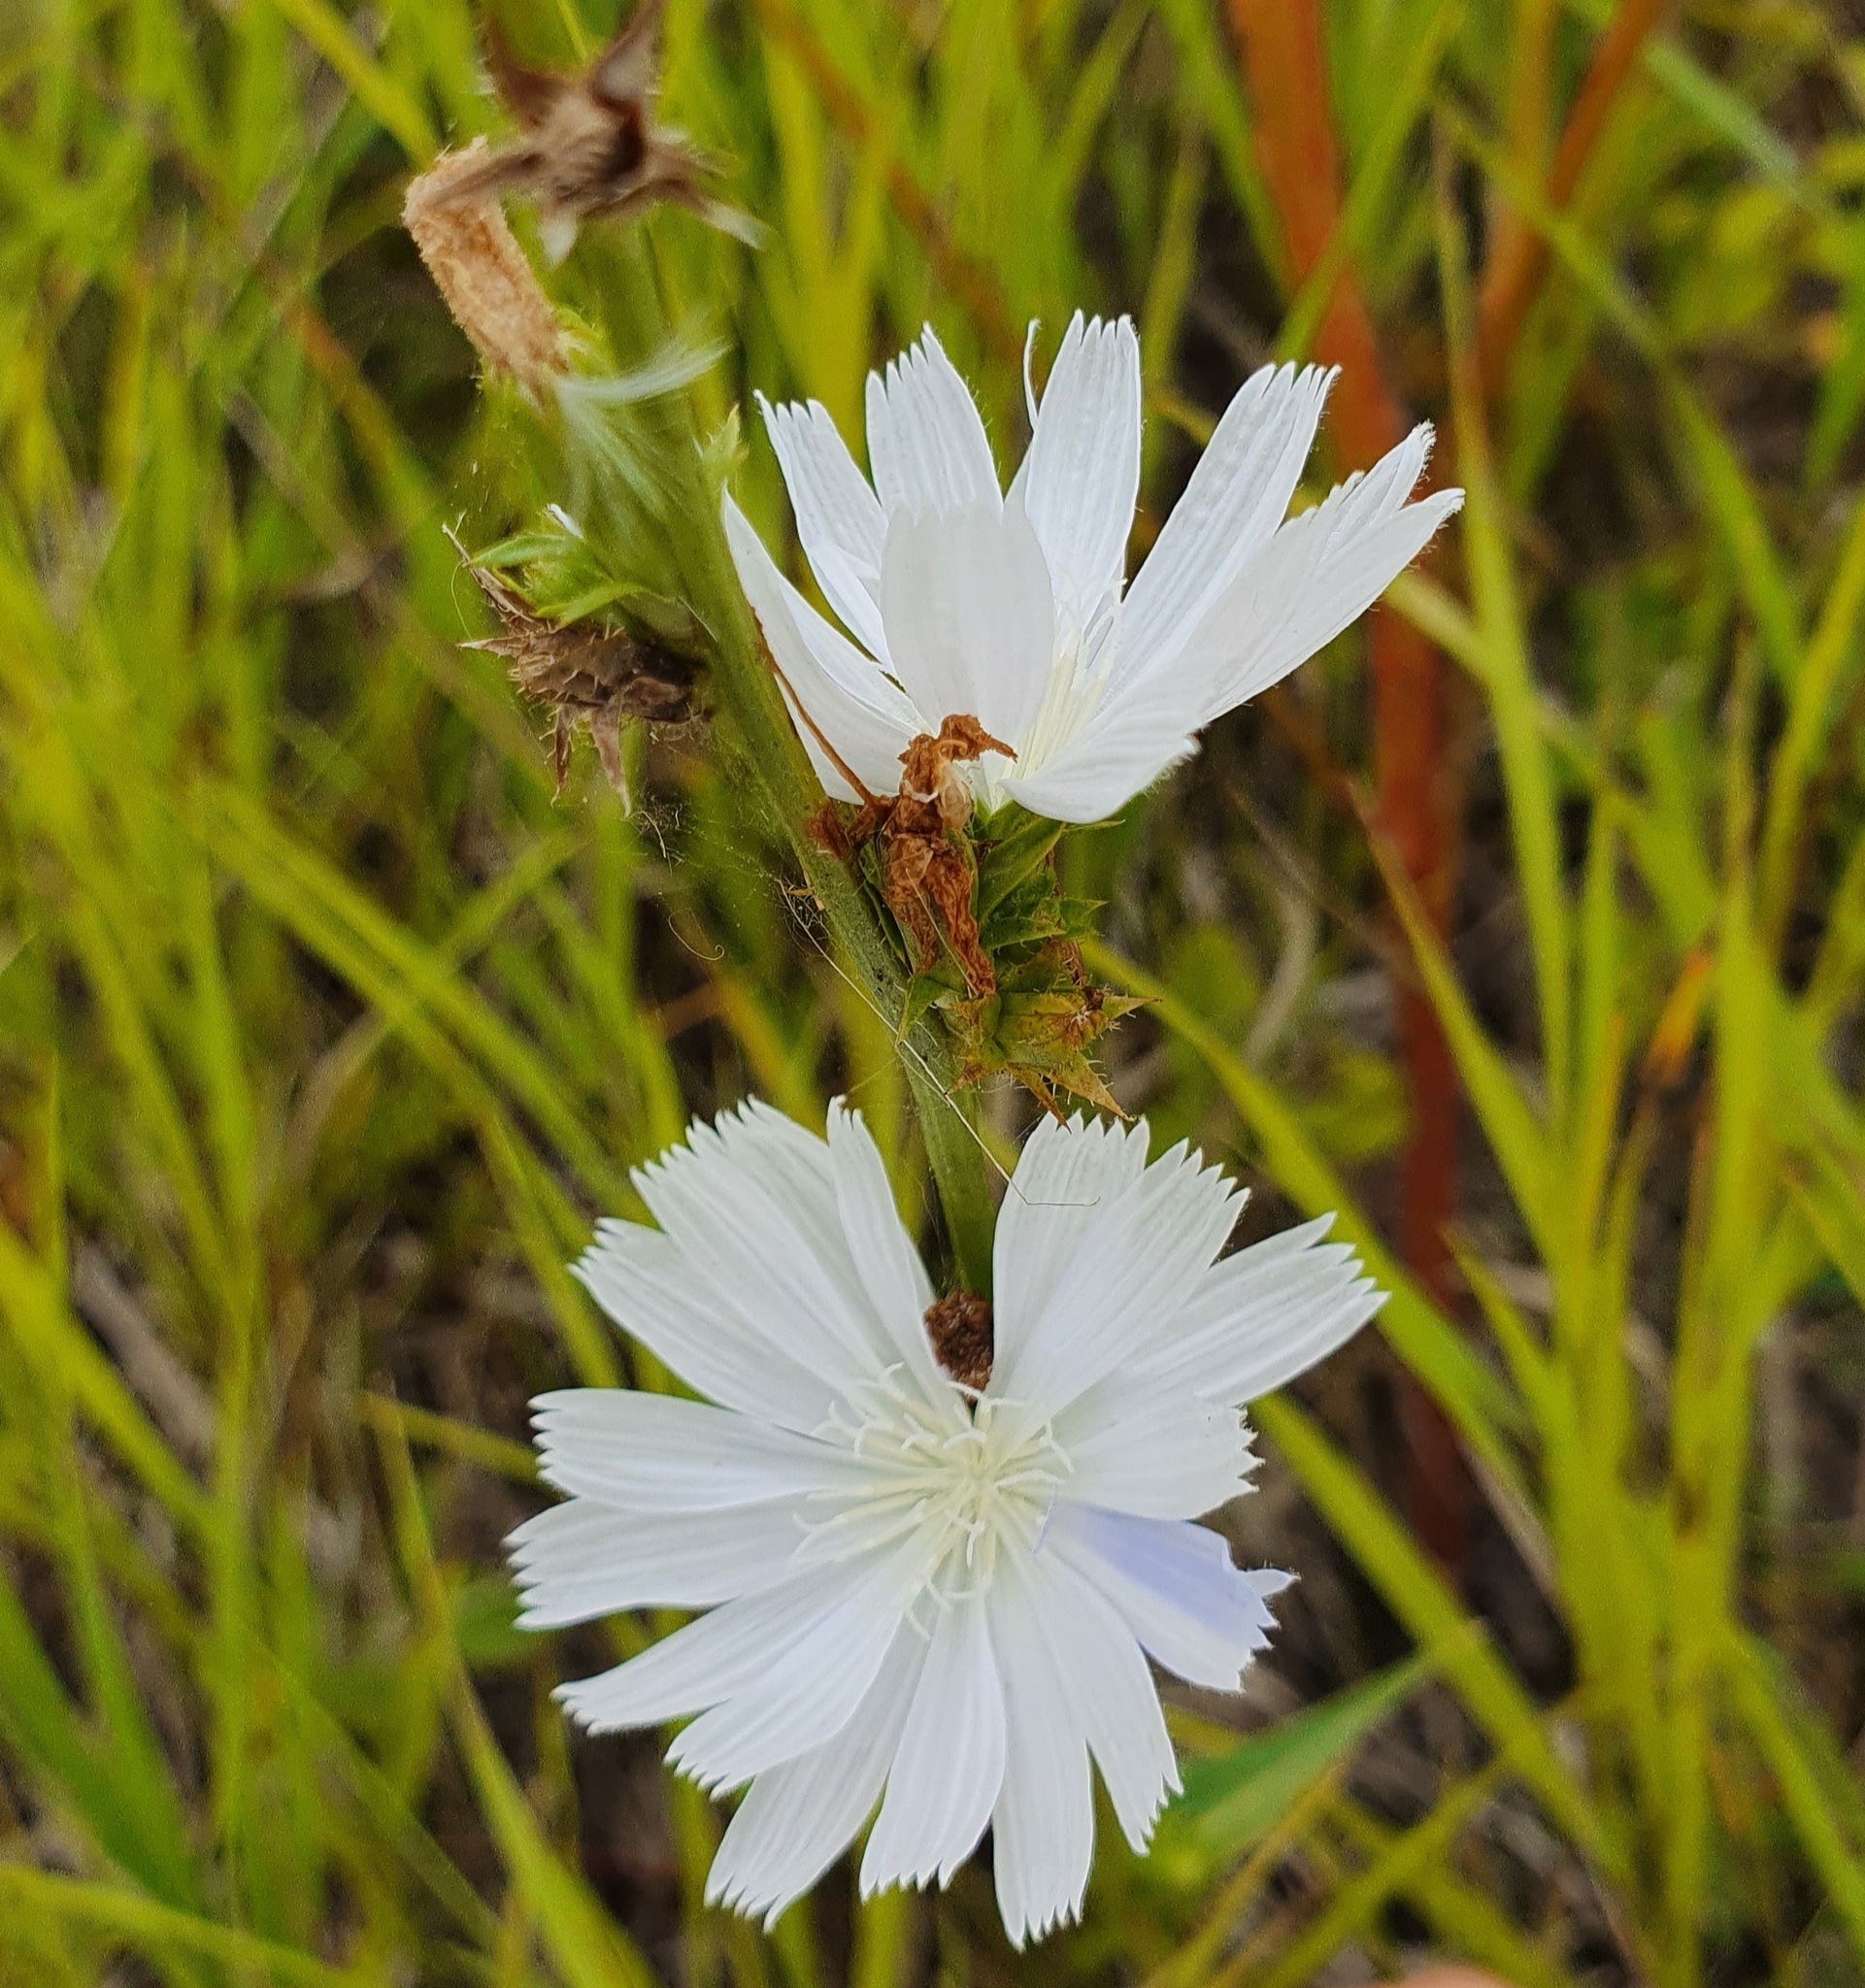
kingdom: Plantae
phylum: Tracheophyta
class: Magnoliopsida
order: Asterales
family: Asteraceae
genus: Cichorium
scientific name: Cichorium intybus
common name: Chicory
